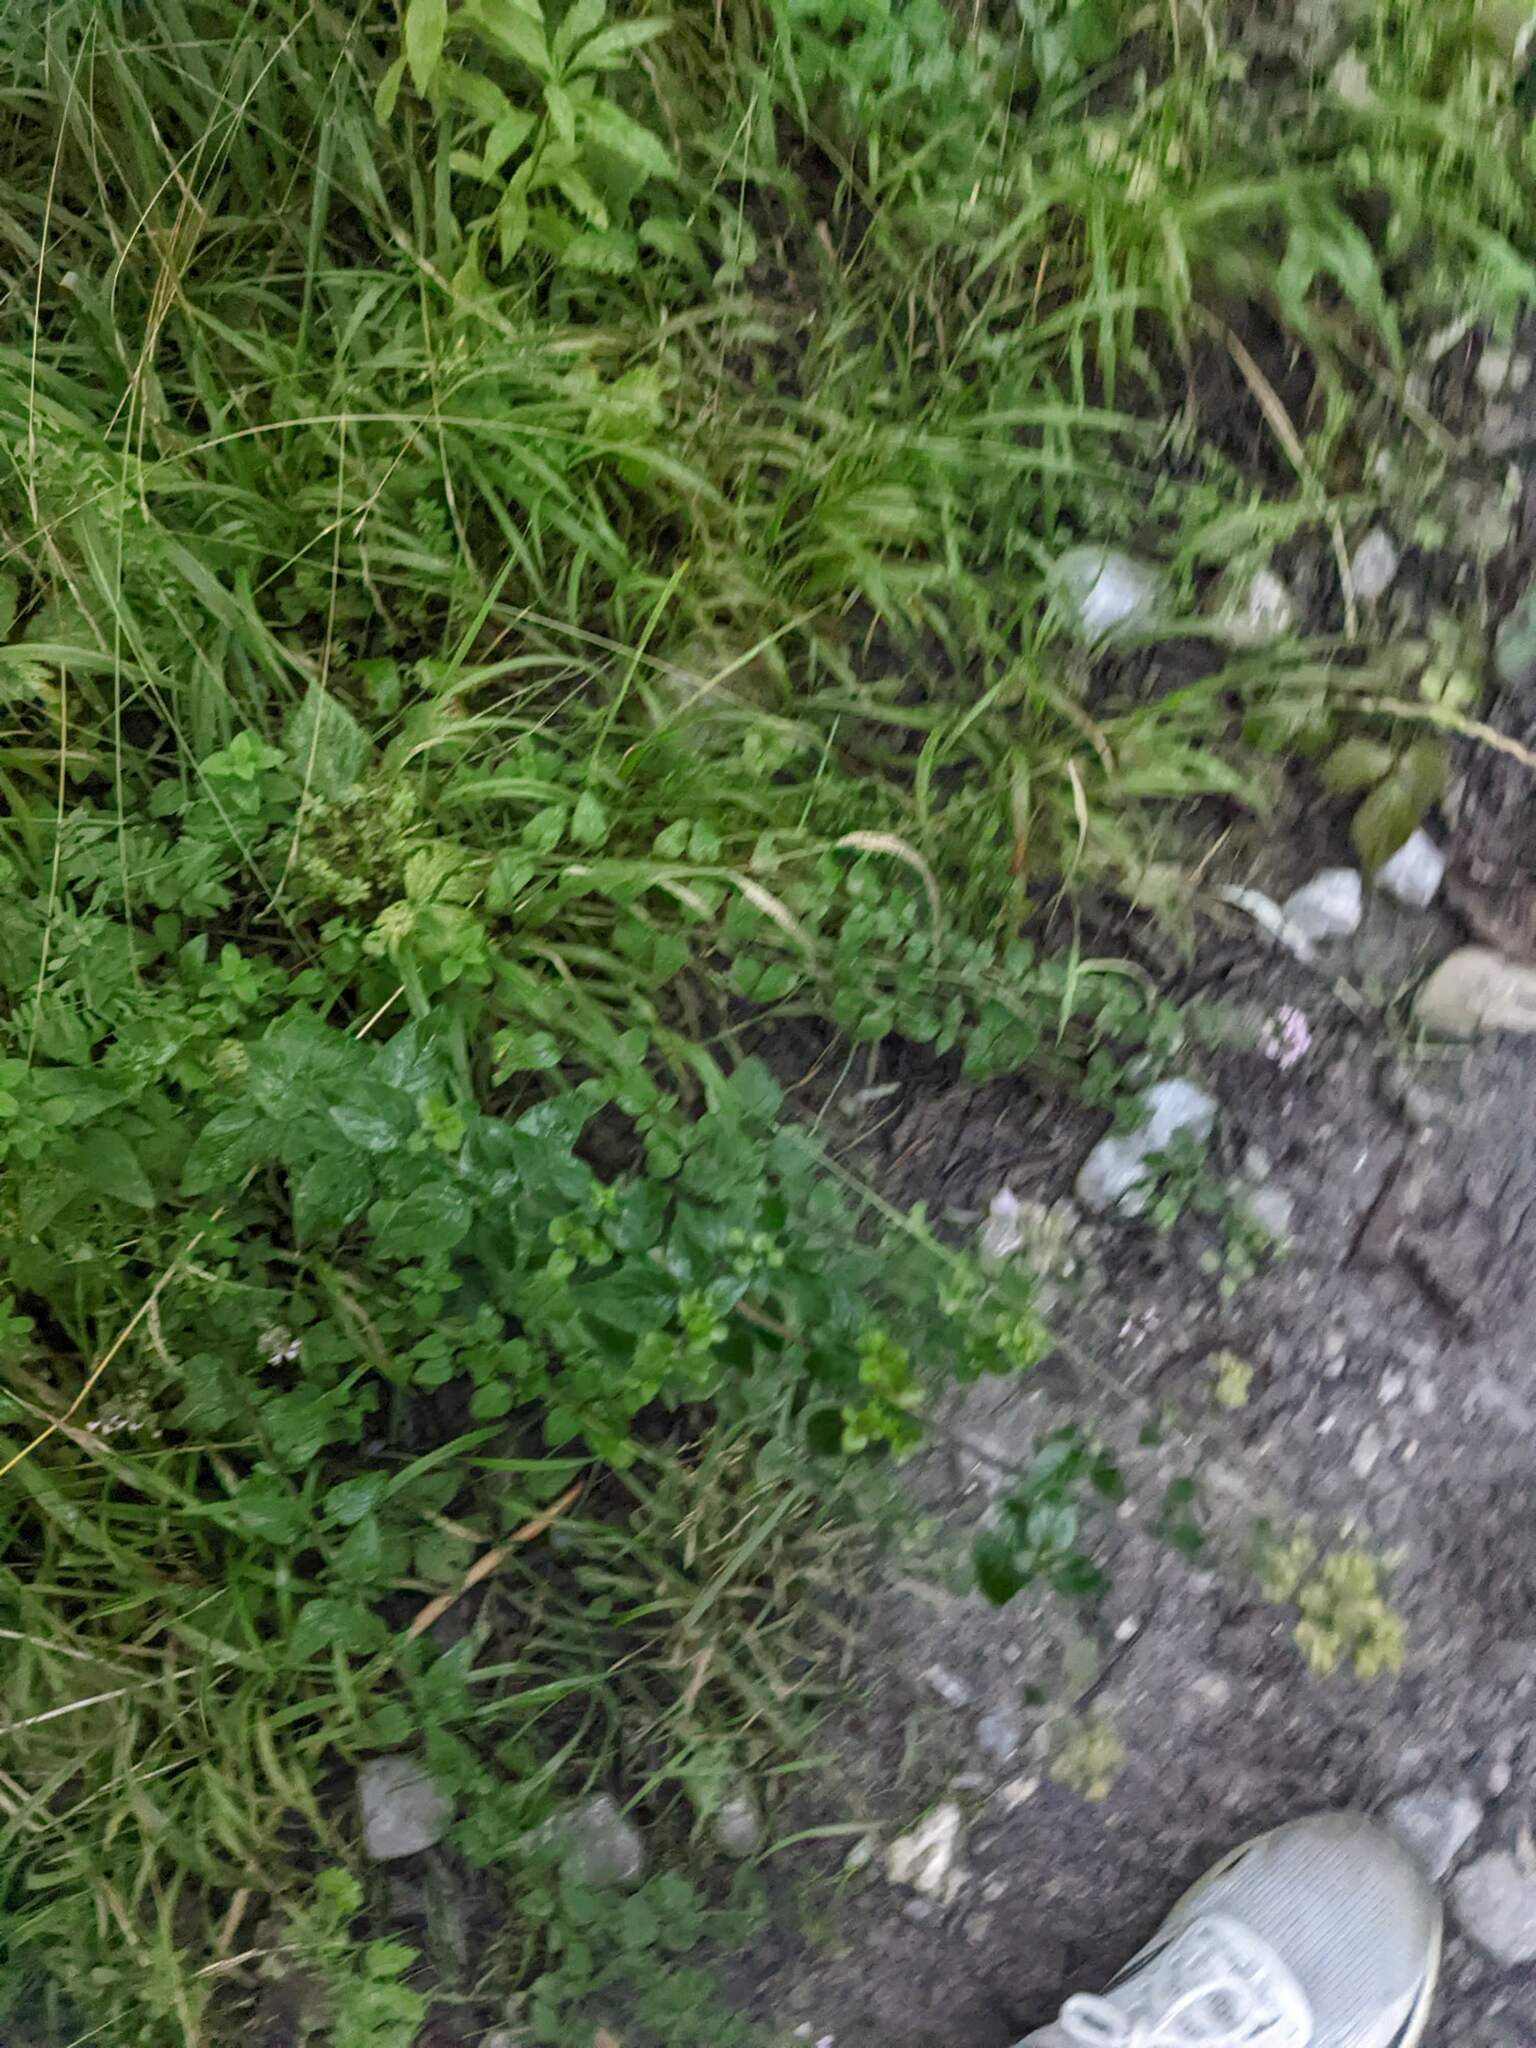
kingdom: Plantae
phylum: Tracheophyta
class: Magnoliopsida
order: Lamiales
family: Lamiaceae
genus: Origanum
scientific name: Origanum vulgare
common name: Wild marjoram
